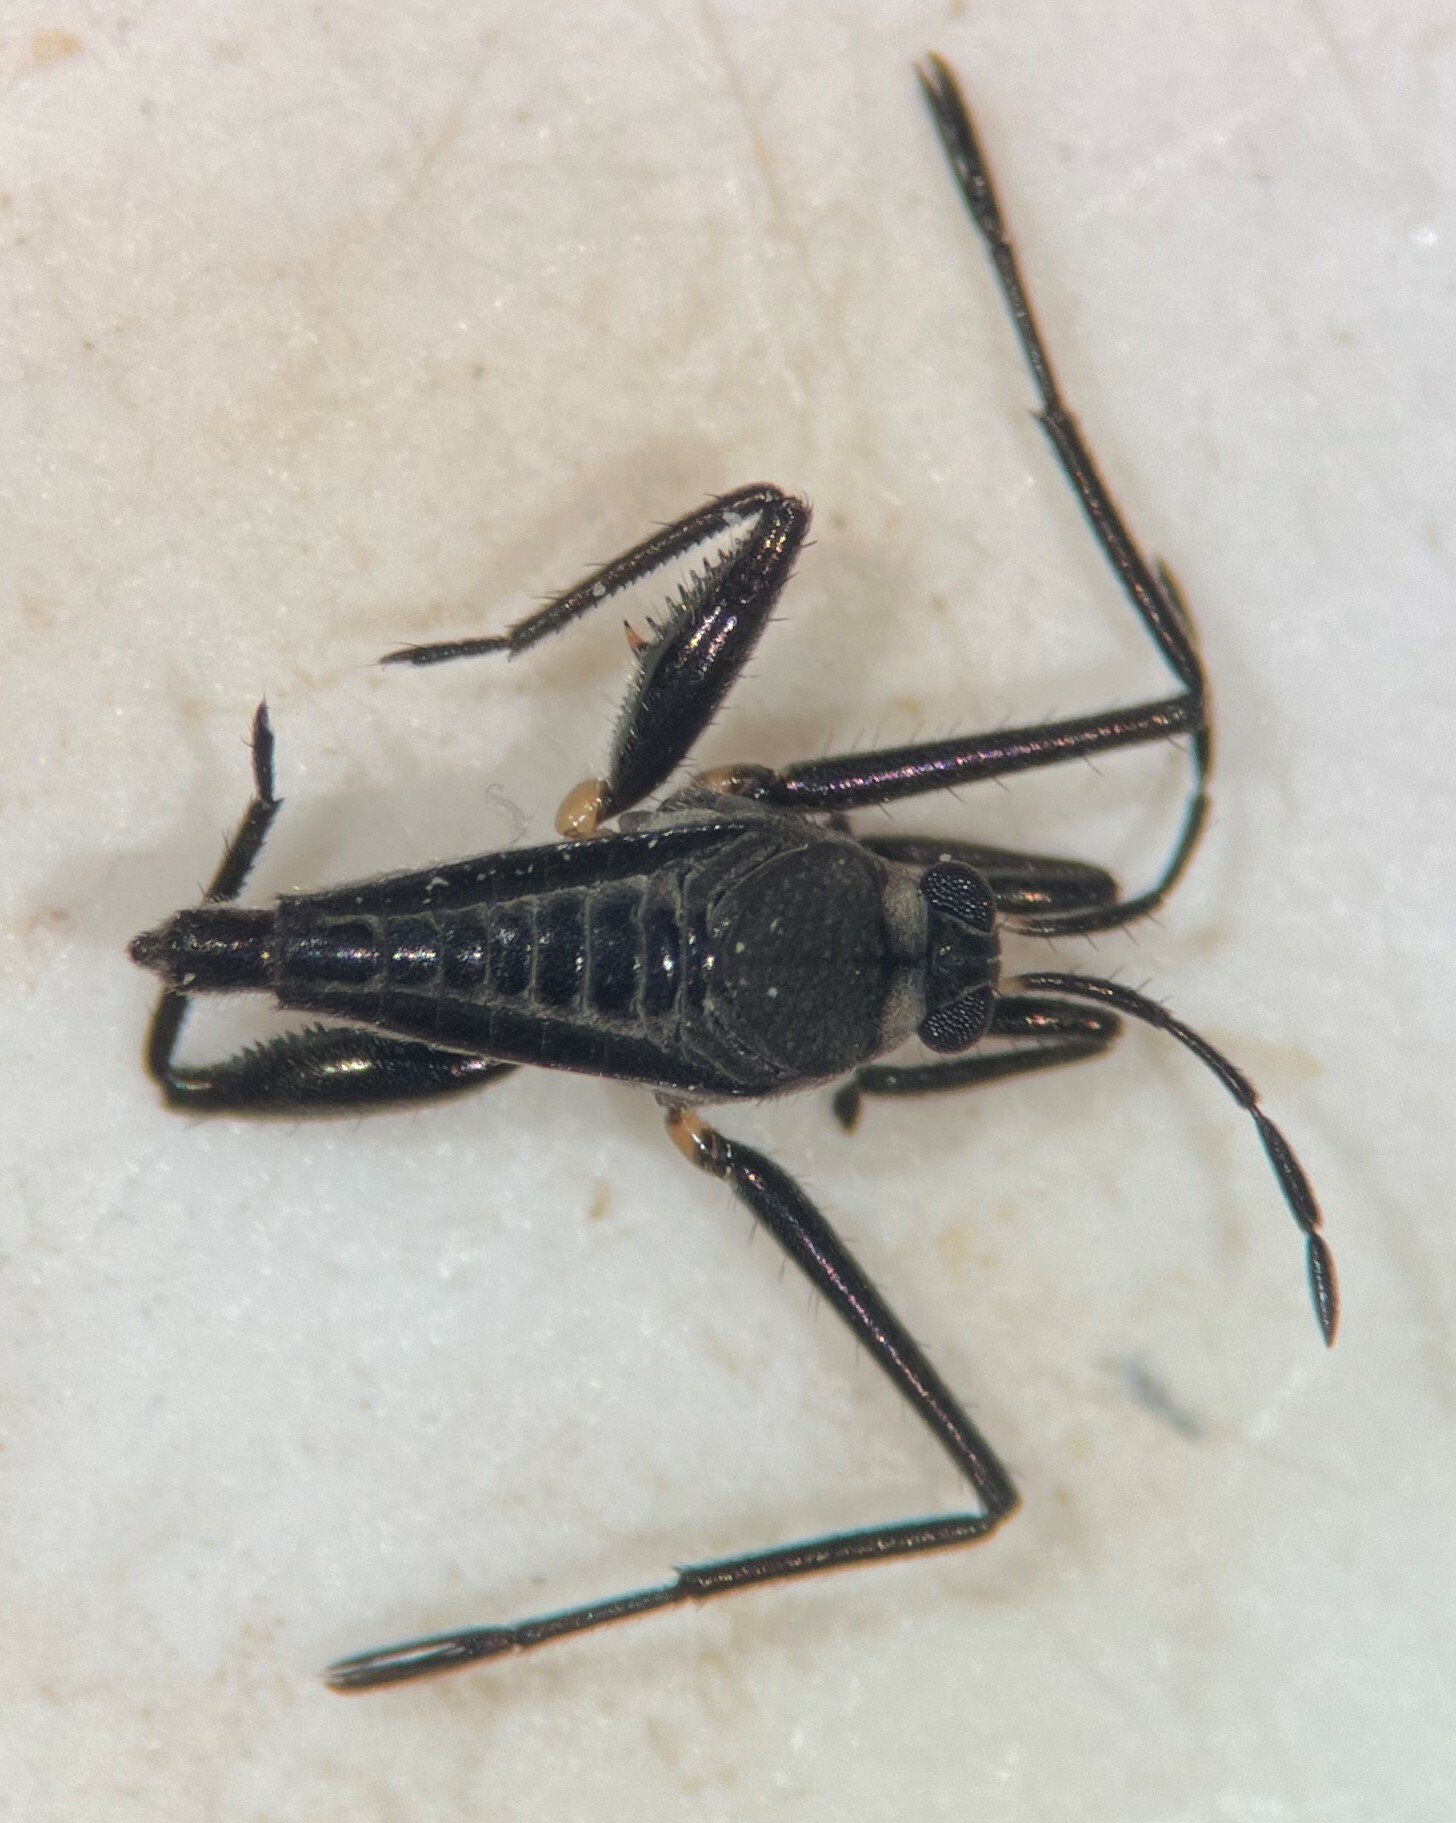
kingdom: Animalia
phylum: Arthropoda
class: Insecta
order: Hemiptera
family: Veliidae
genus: Rhagovelia
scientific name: Rhagovelia knighti
